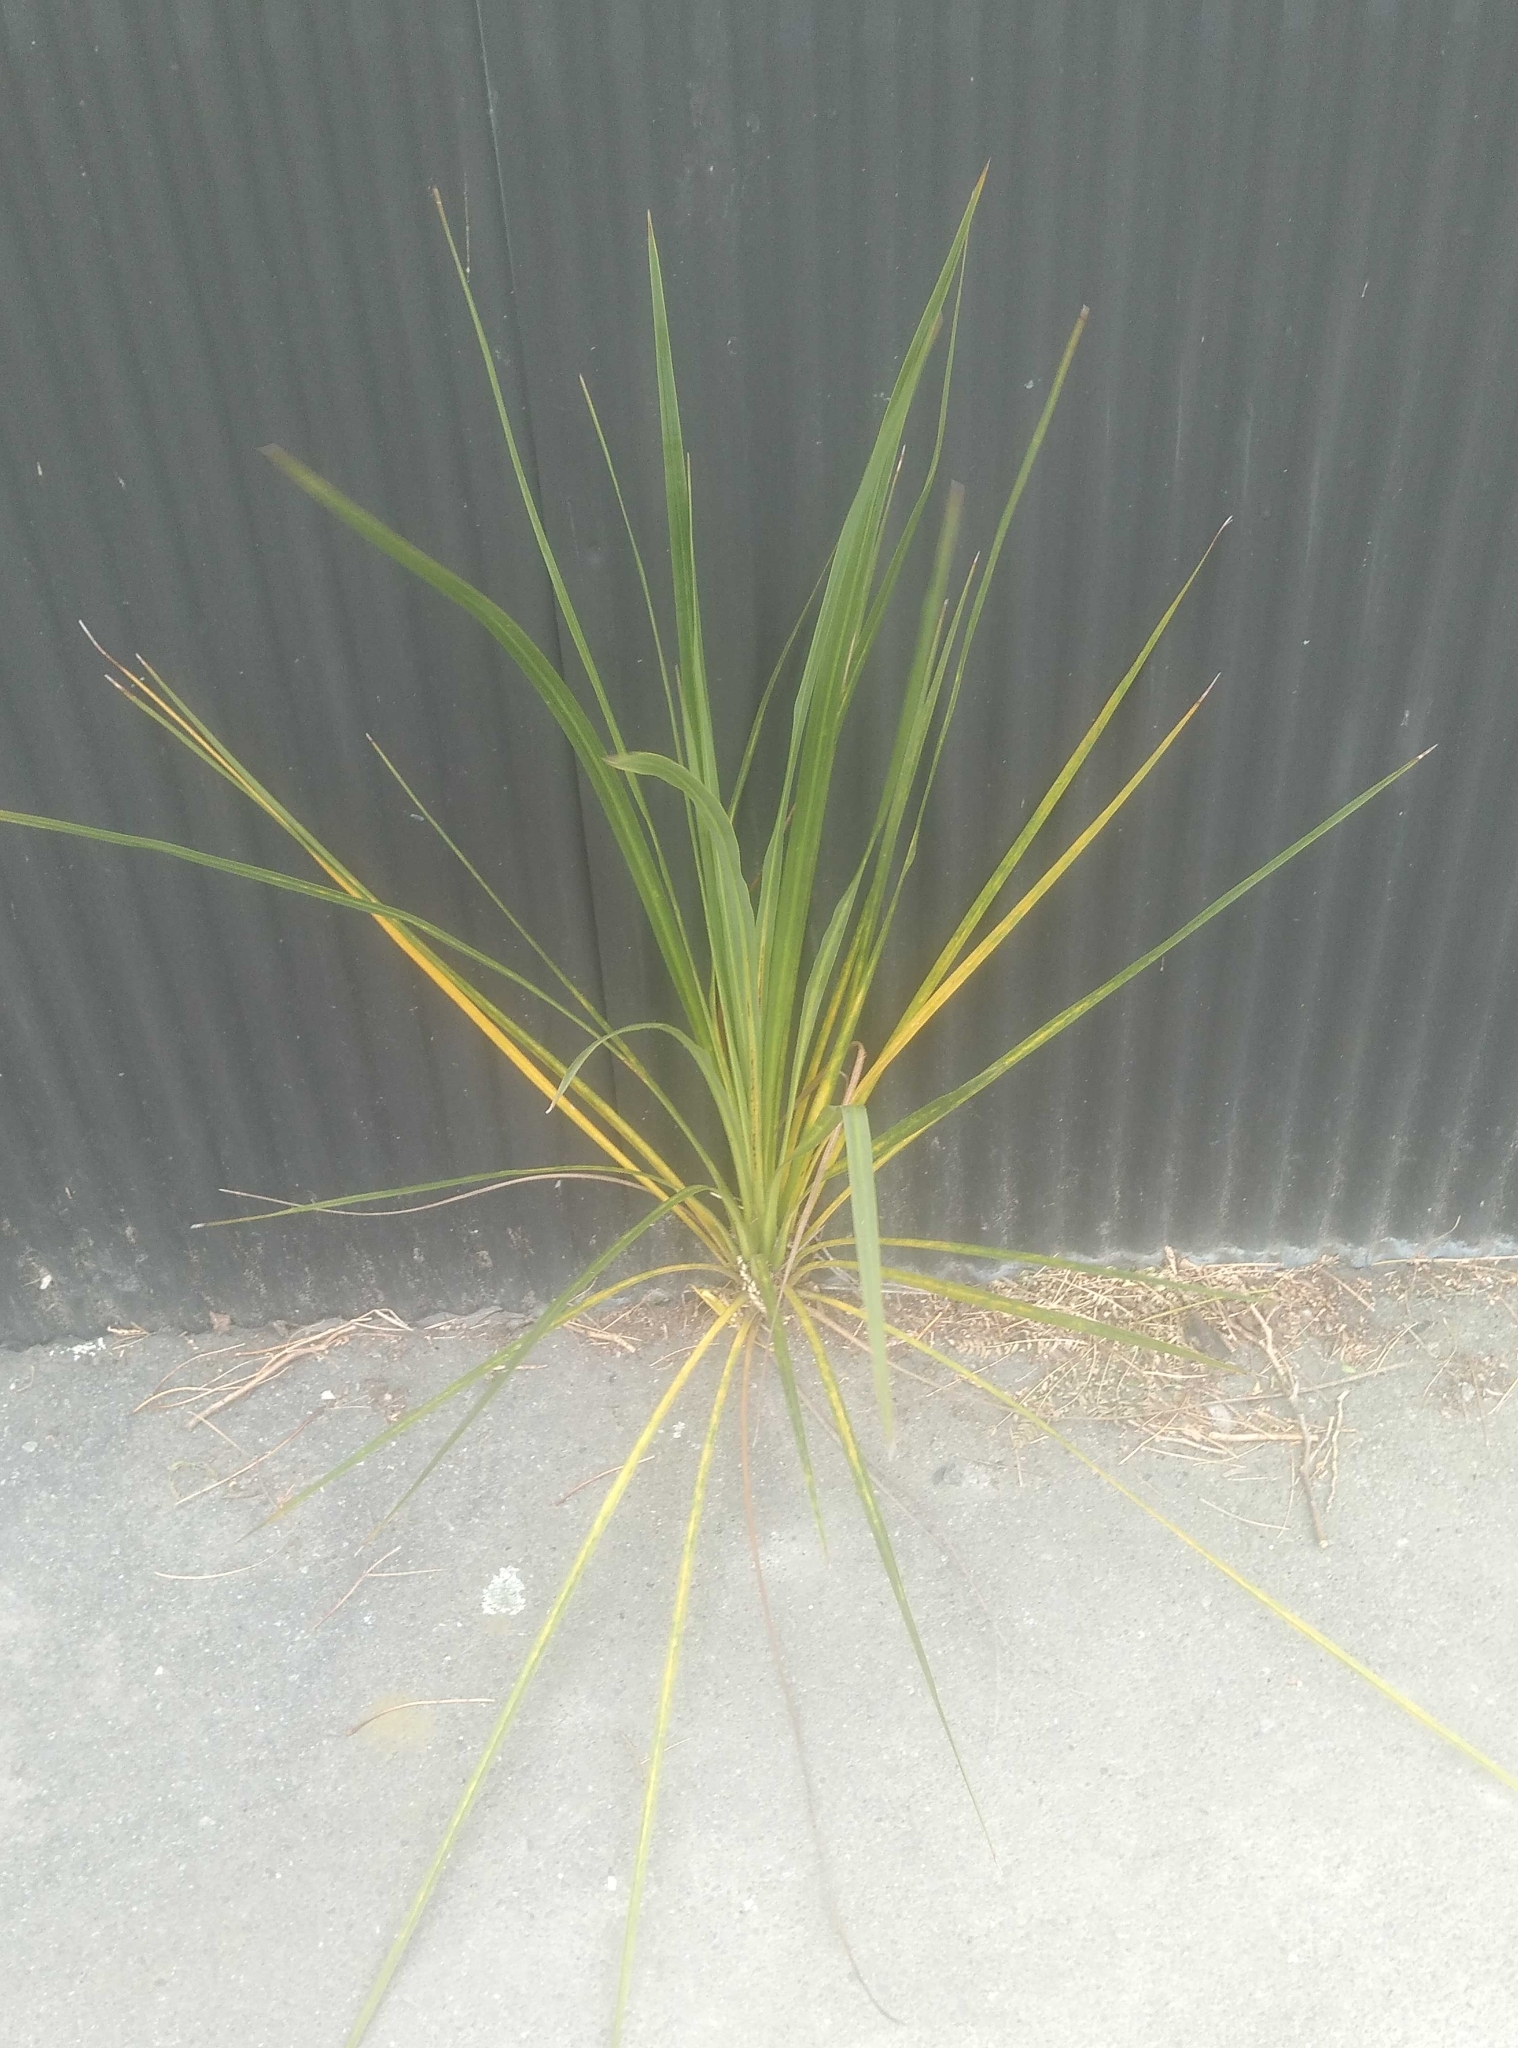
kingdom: Plantae
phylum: Tracheophyta
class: Liliopsida
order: Asparagales
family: Asparagaceae
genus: Cordyline
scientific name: Cordyline australis
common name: Cabbage-palm
